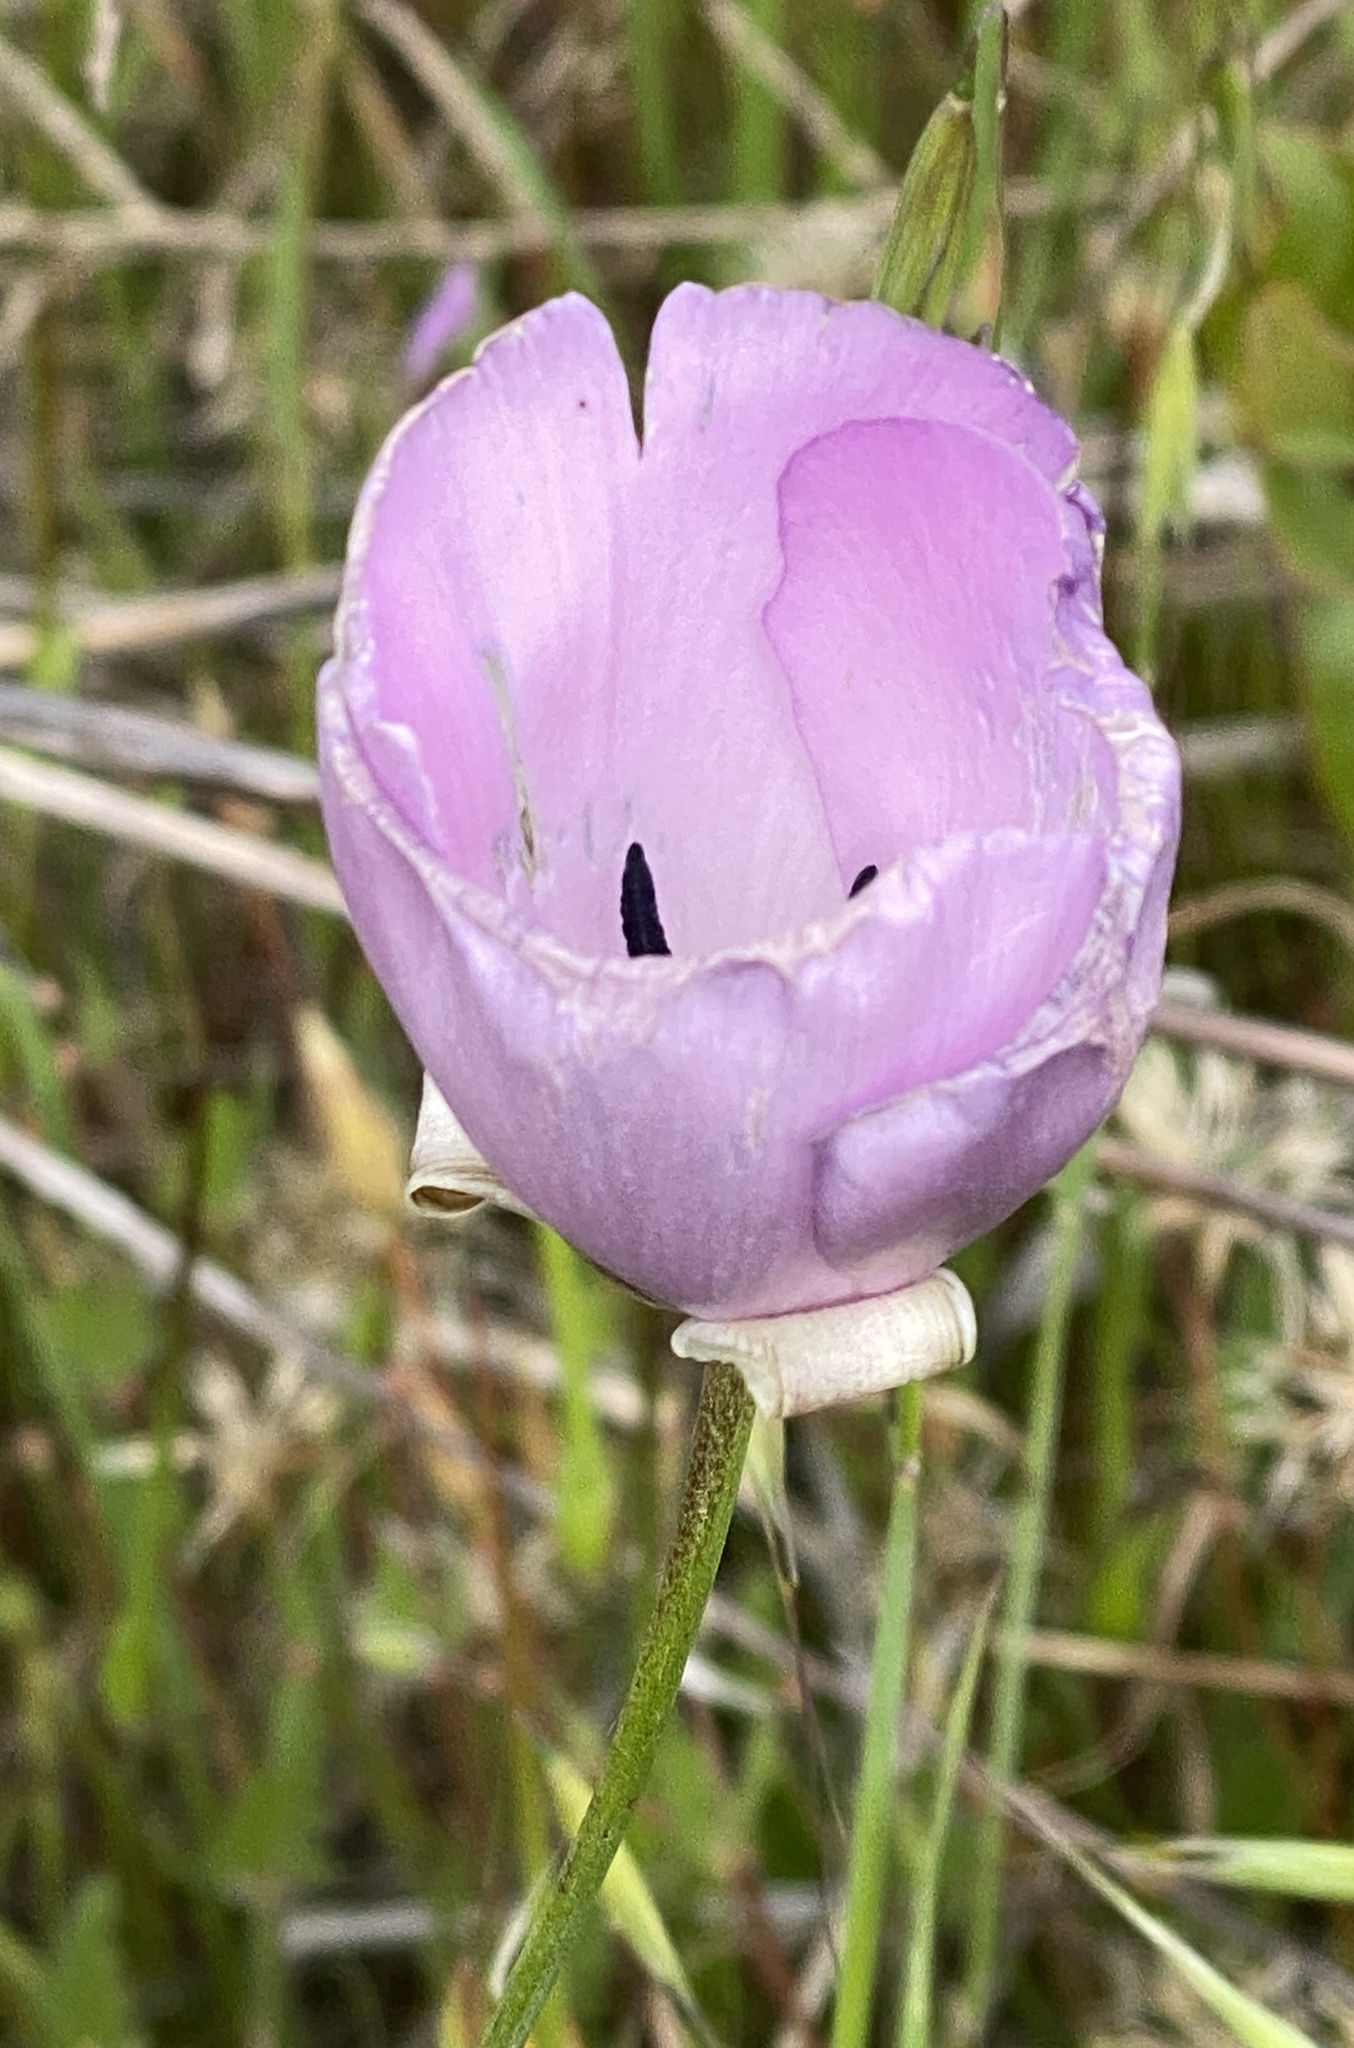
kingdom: Plantae
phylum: Tracheophyta
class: Liliopsida
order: Liliales
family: Liliaceae
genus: Calochortus
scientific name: Calochortus splendens
